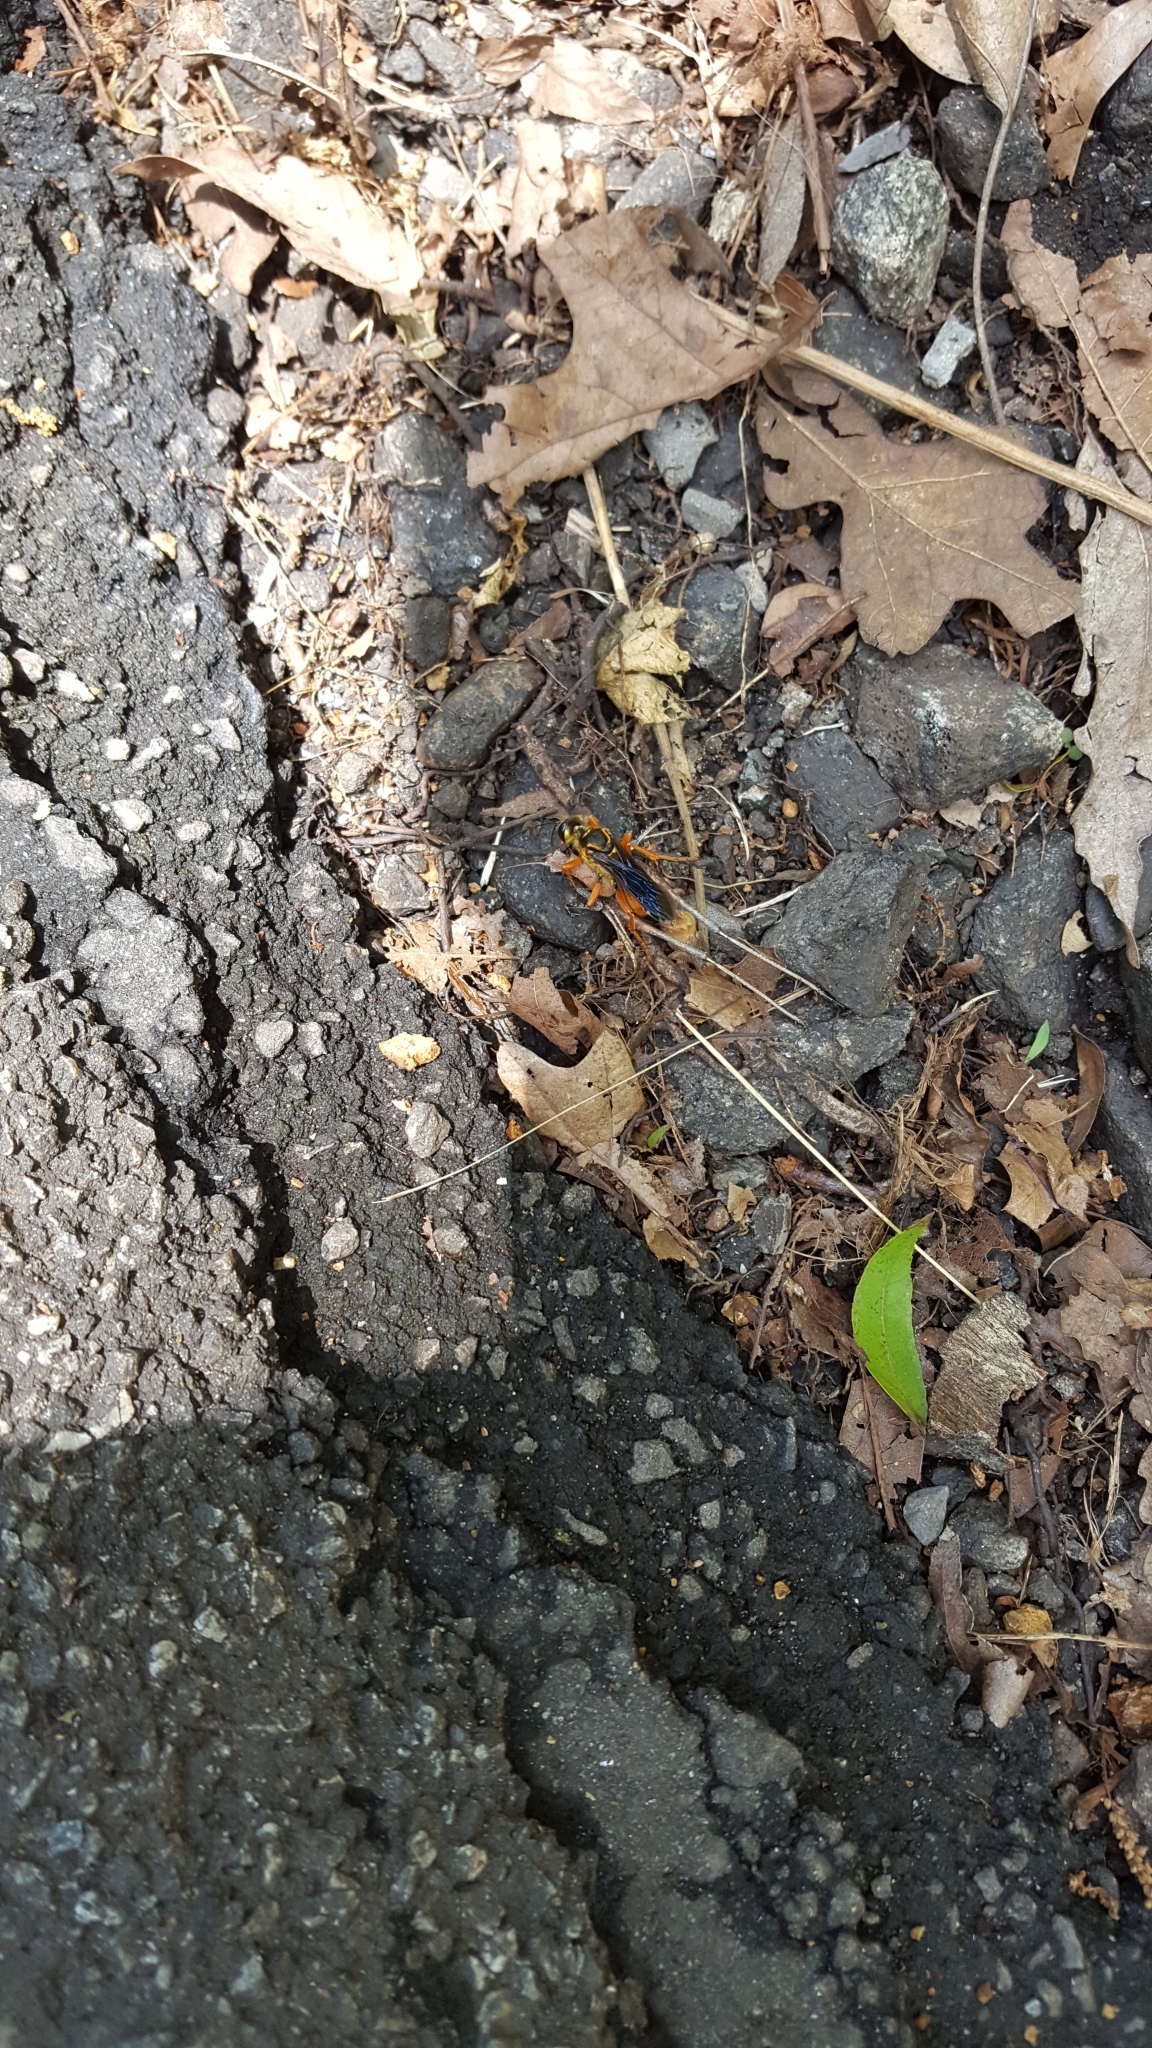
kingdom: Animalia
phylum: Arthropoda
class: Insecta
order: Hymenoptera
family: Sphecidae
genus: Sphex
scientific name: Sphex ichneumoneus
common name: Great golden digger wasp
